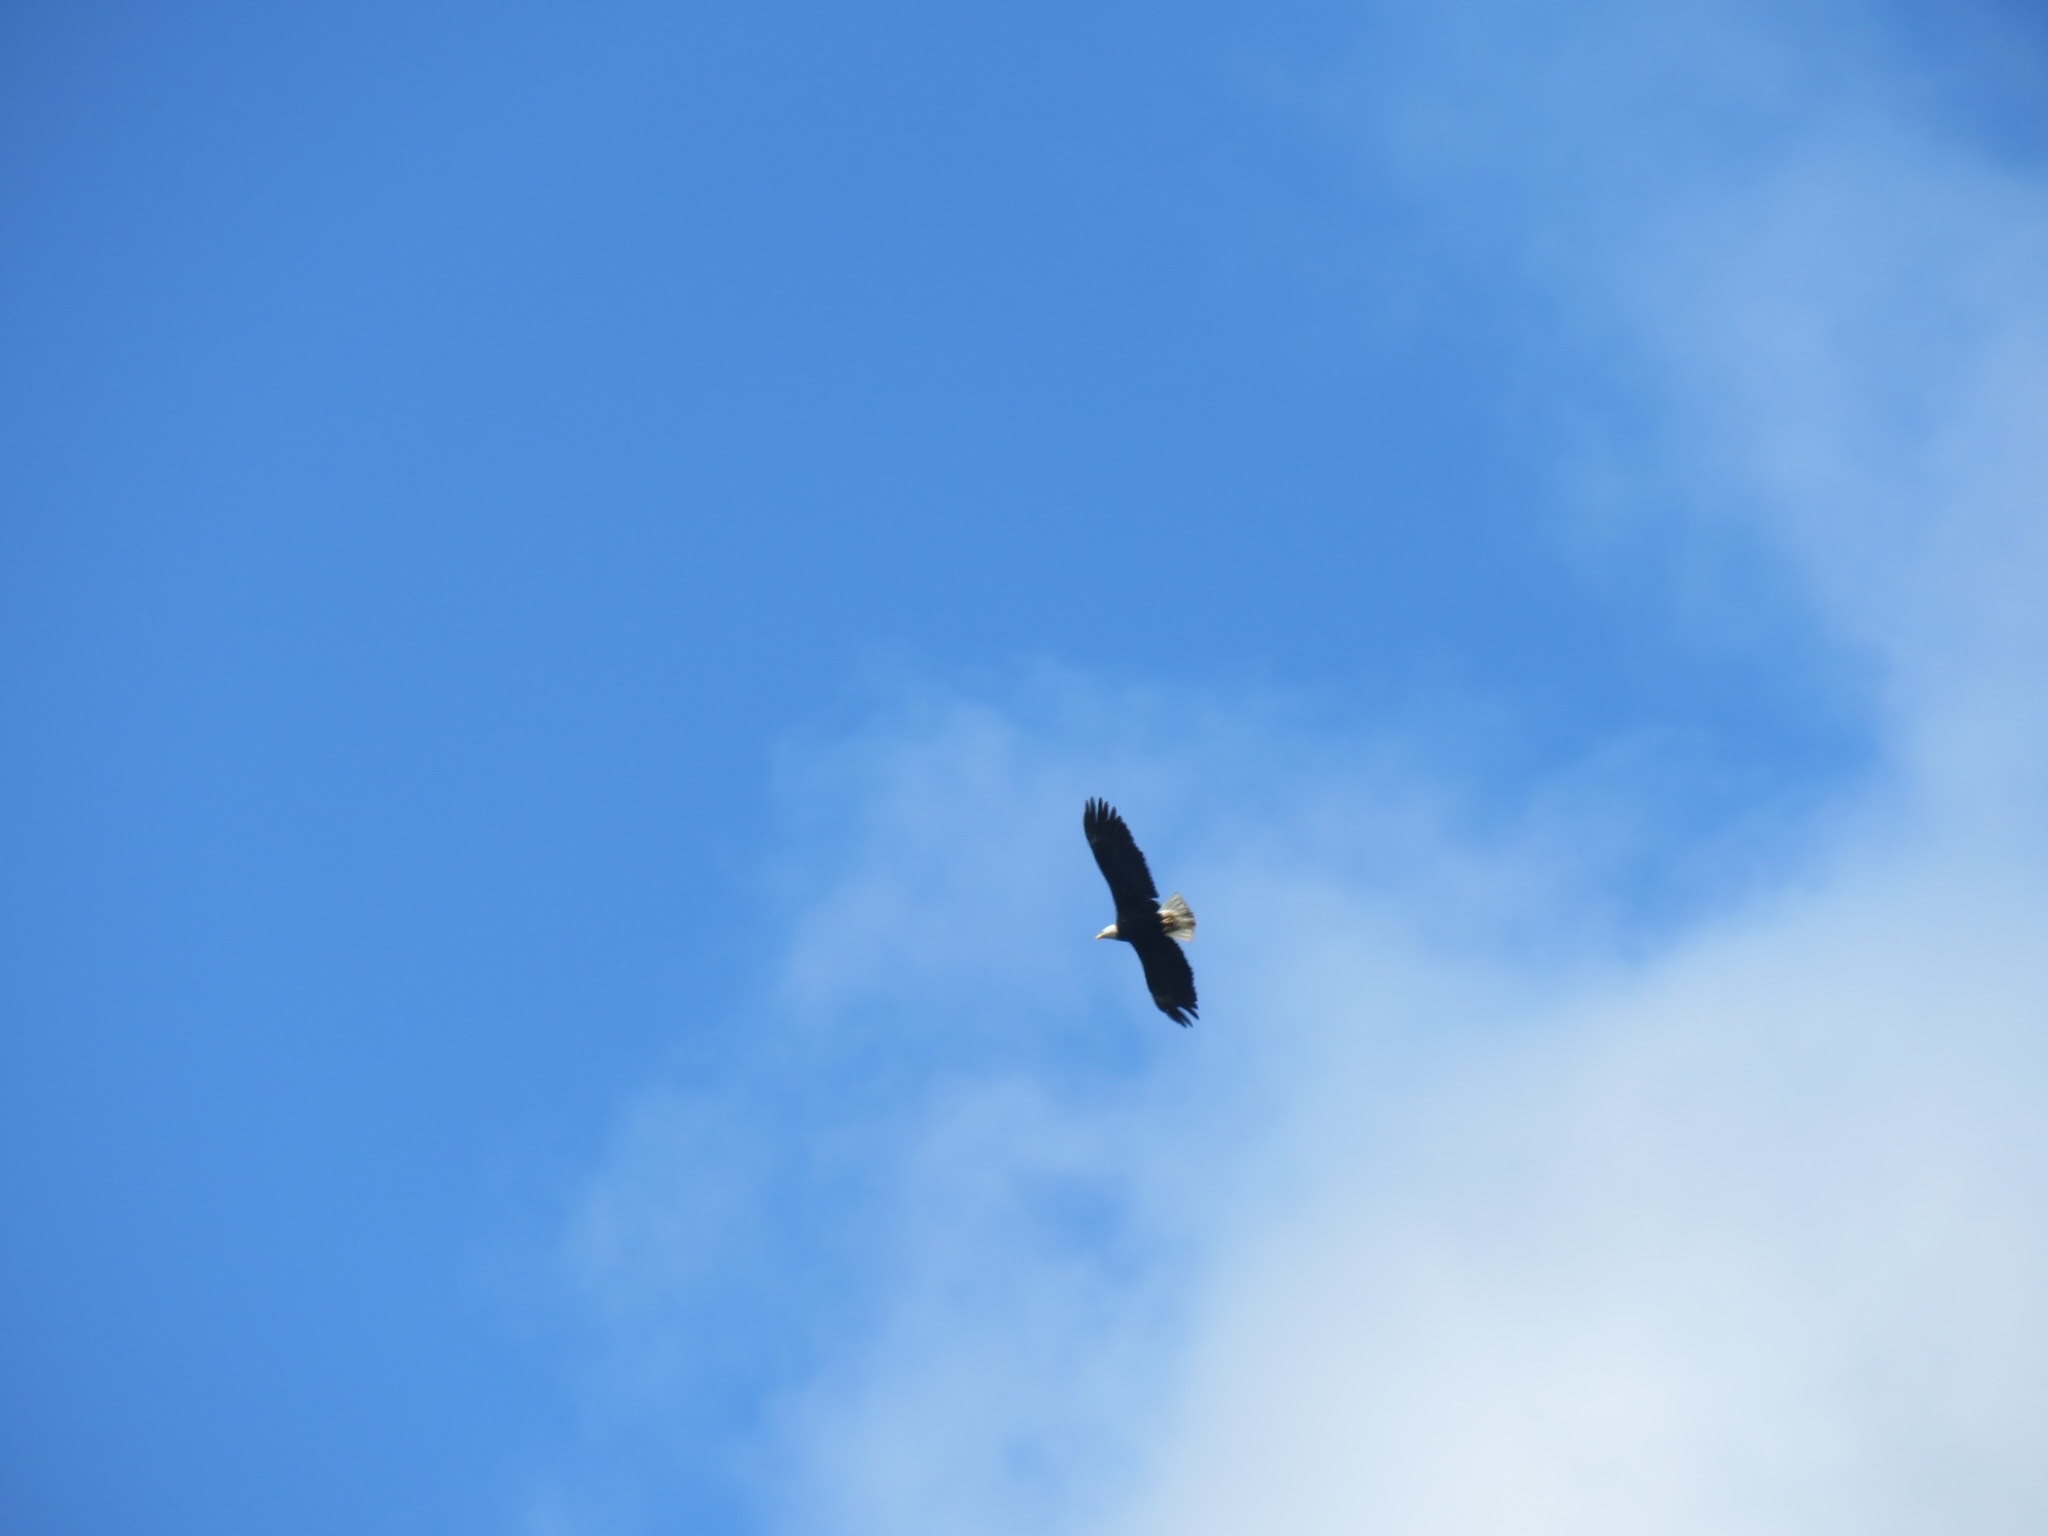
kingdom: Animalia
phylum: Chordata
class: Aves
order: Accipitriformes
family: Accipitridae
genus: Haliaeetus
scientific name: Haliaeetus leucocephalus
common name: Bald eagle
